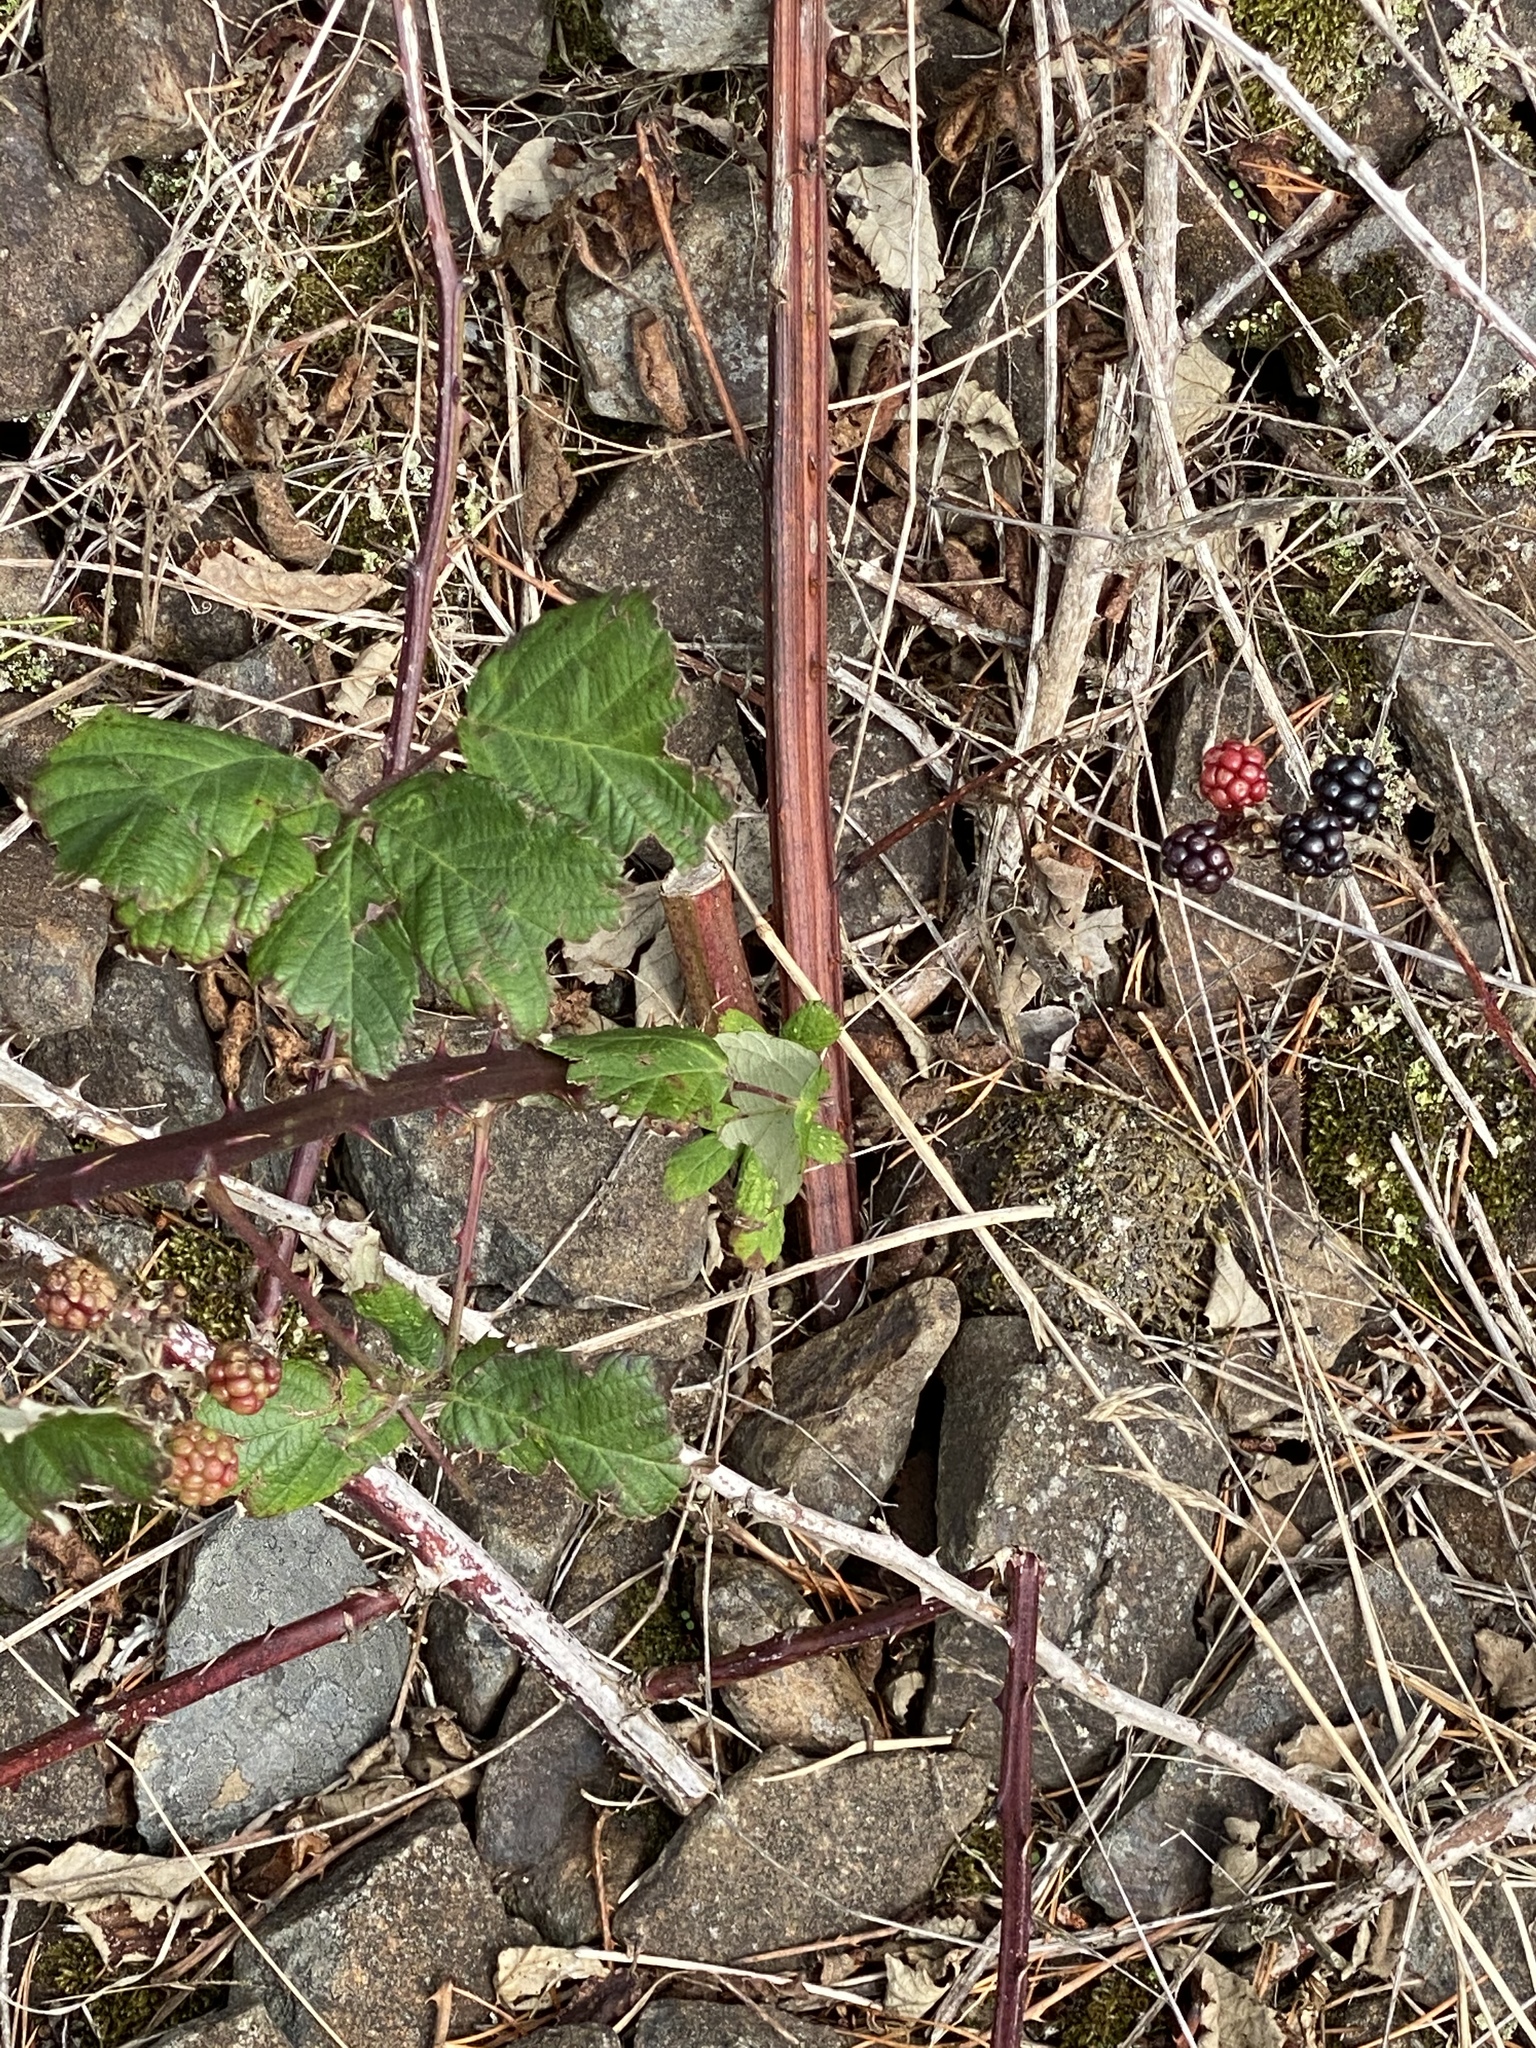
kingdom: Plantae
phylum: Tracheophyta
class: Magnoliopsida
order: Rosales
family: Rosaceae
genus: Rubus
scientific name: Rubus bifrons
